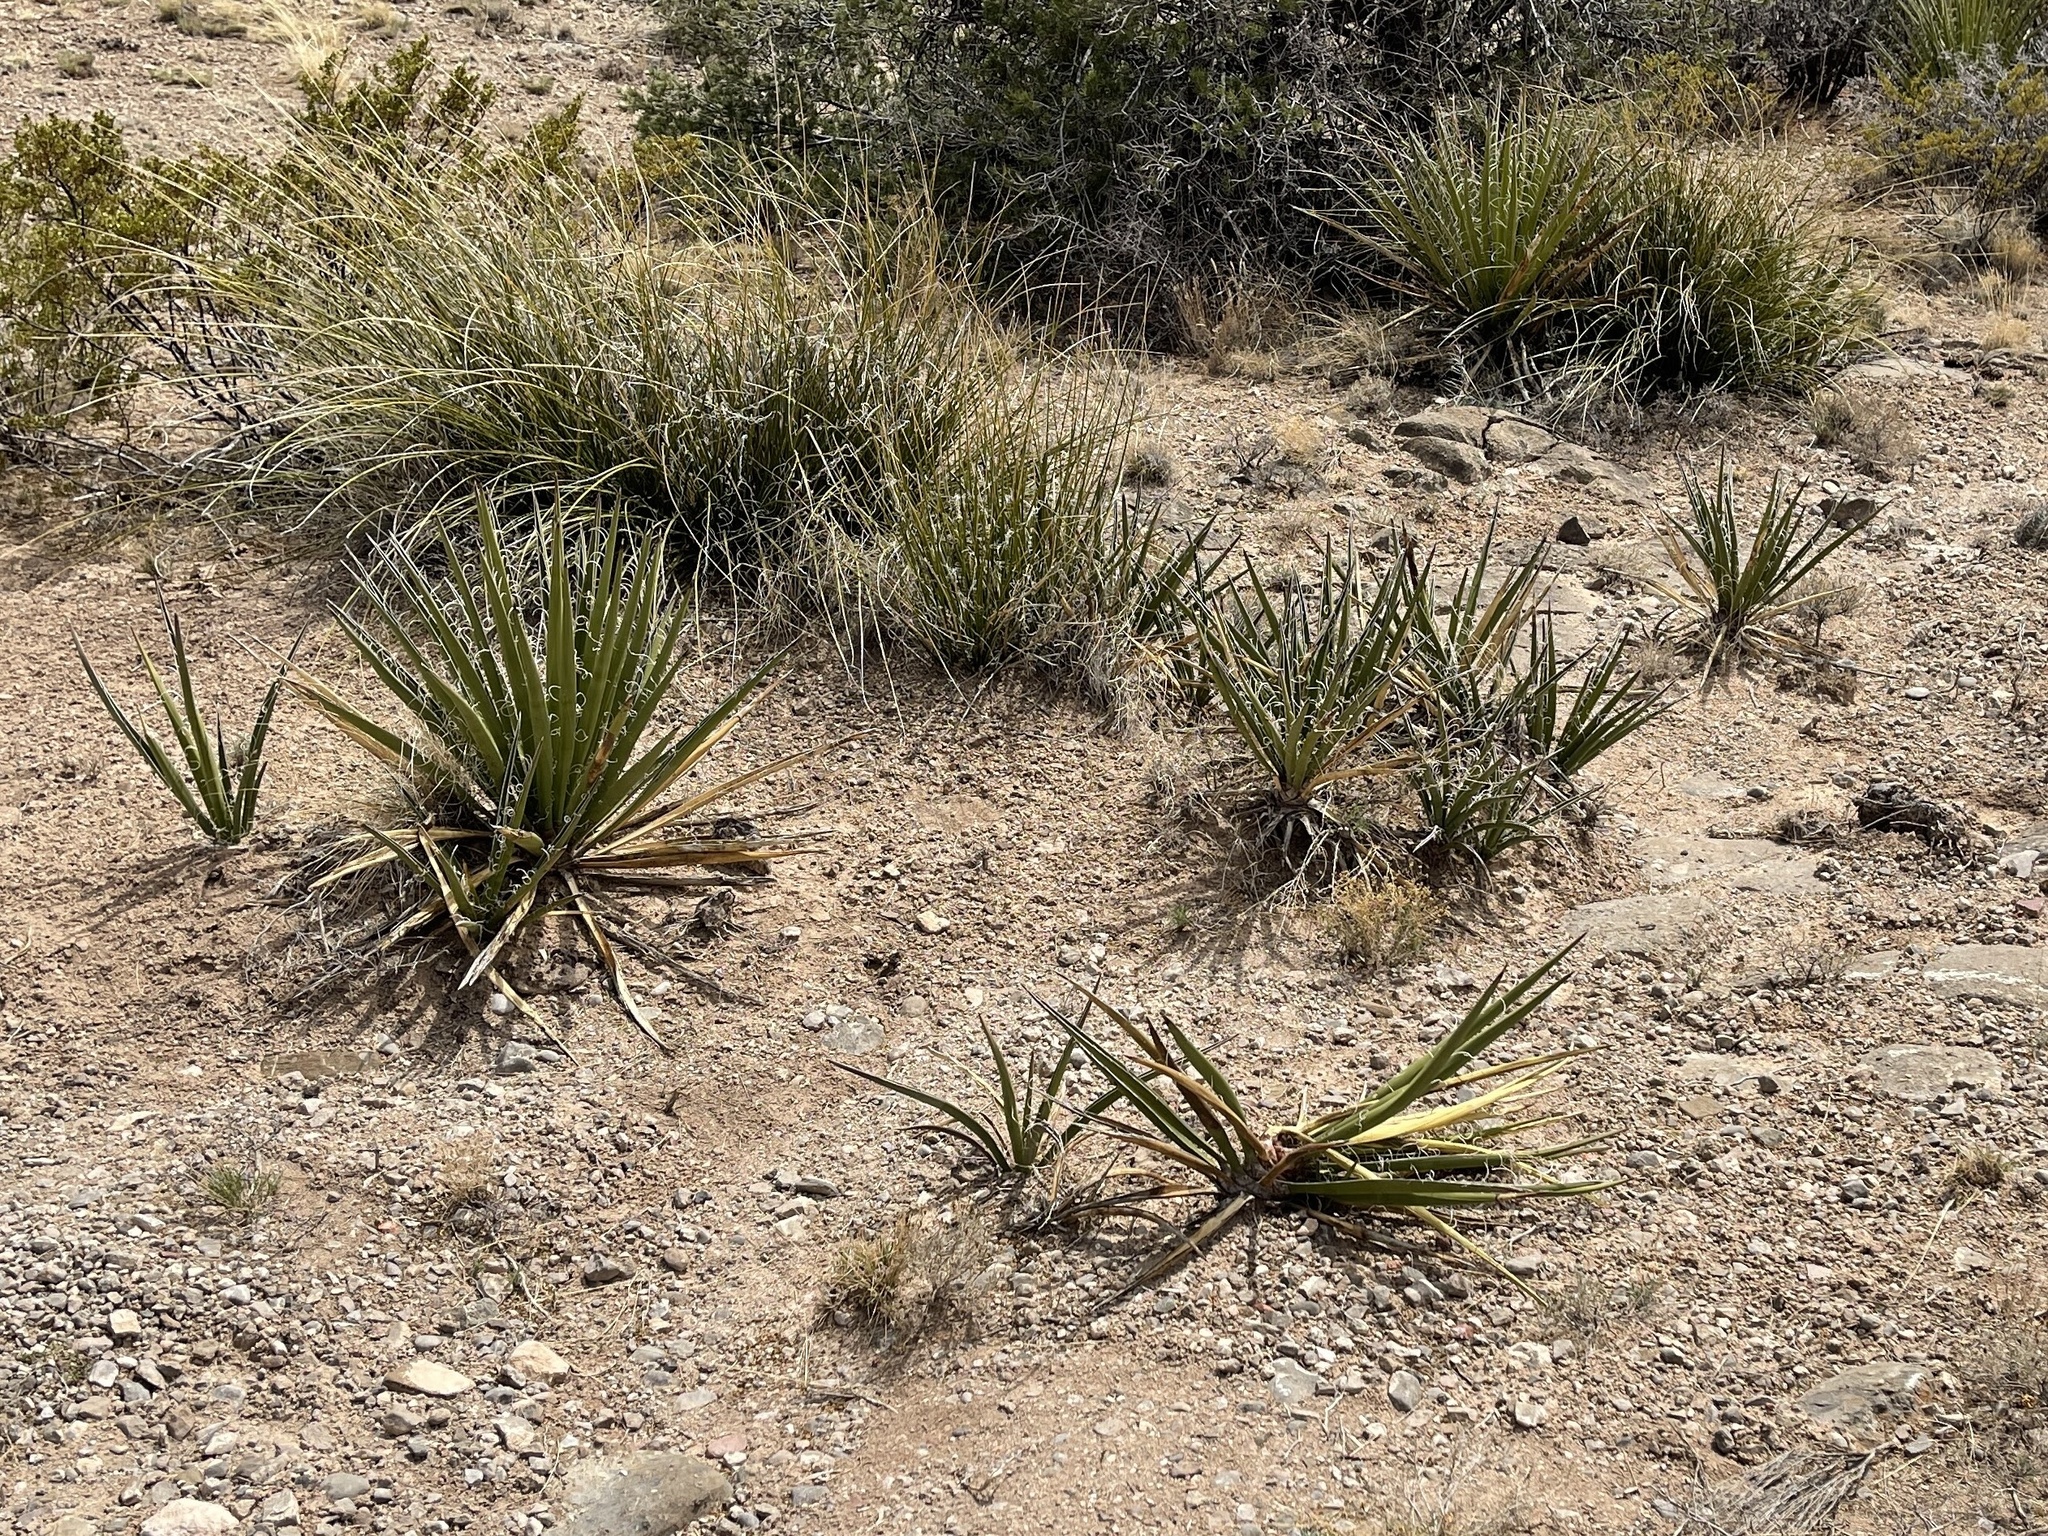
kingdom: Plantae
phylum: Tracheophyta
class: Liliopsida
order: Asparagales
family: Asparagaceae
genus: Yucca
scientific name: Yucca baccata
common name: Banana yucca
